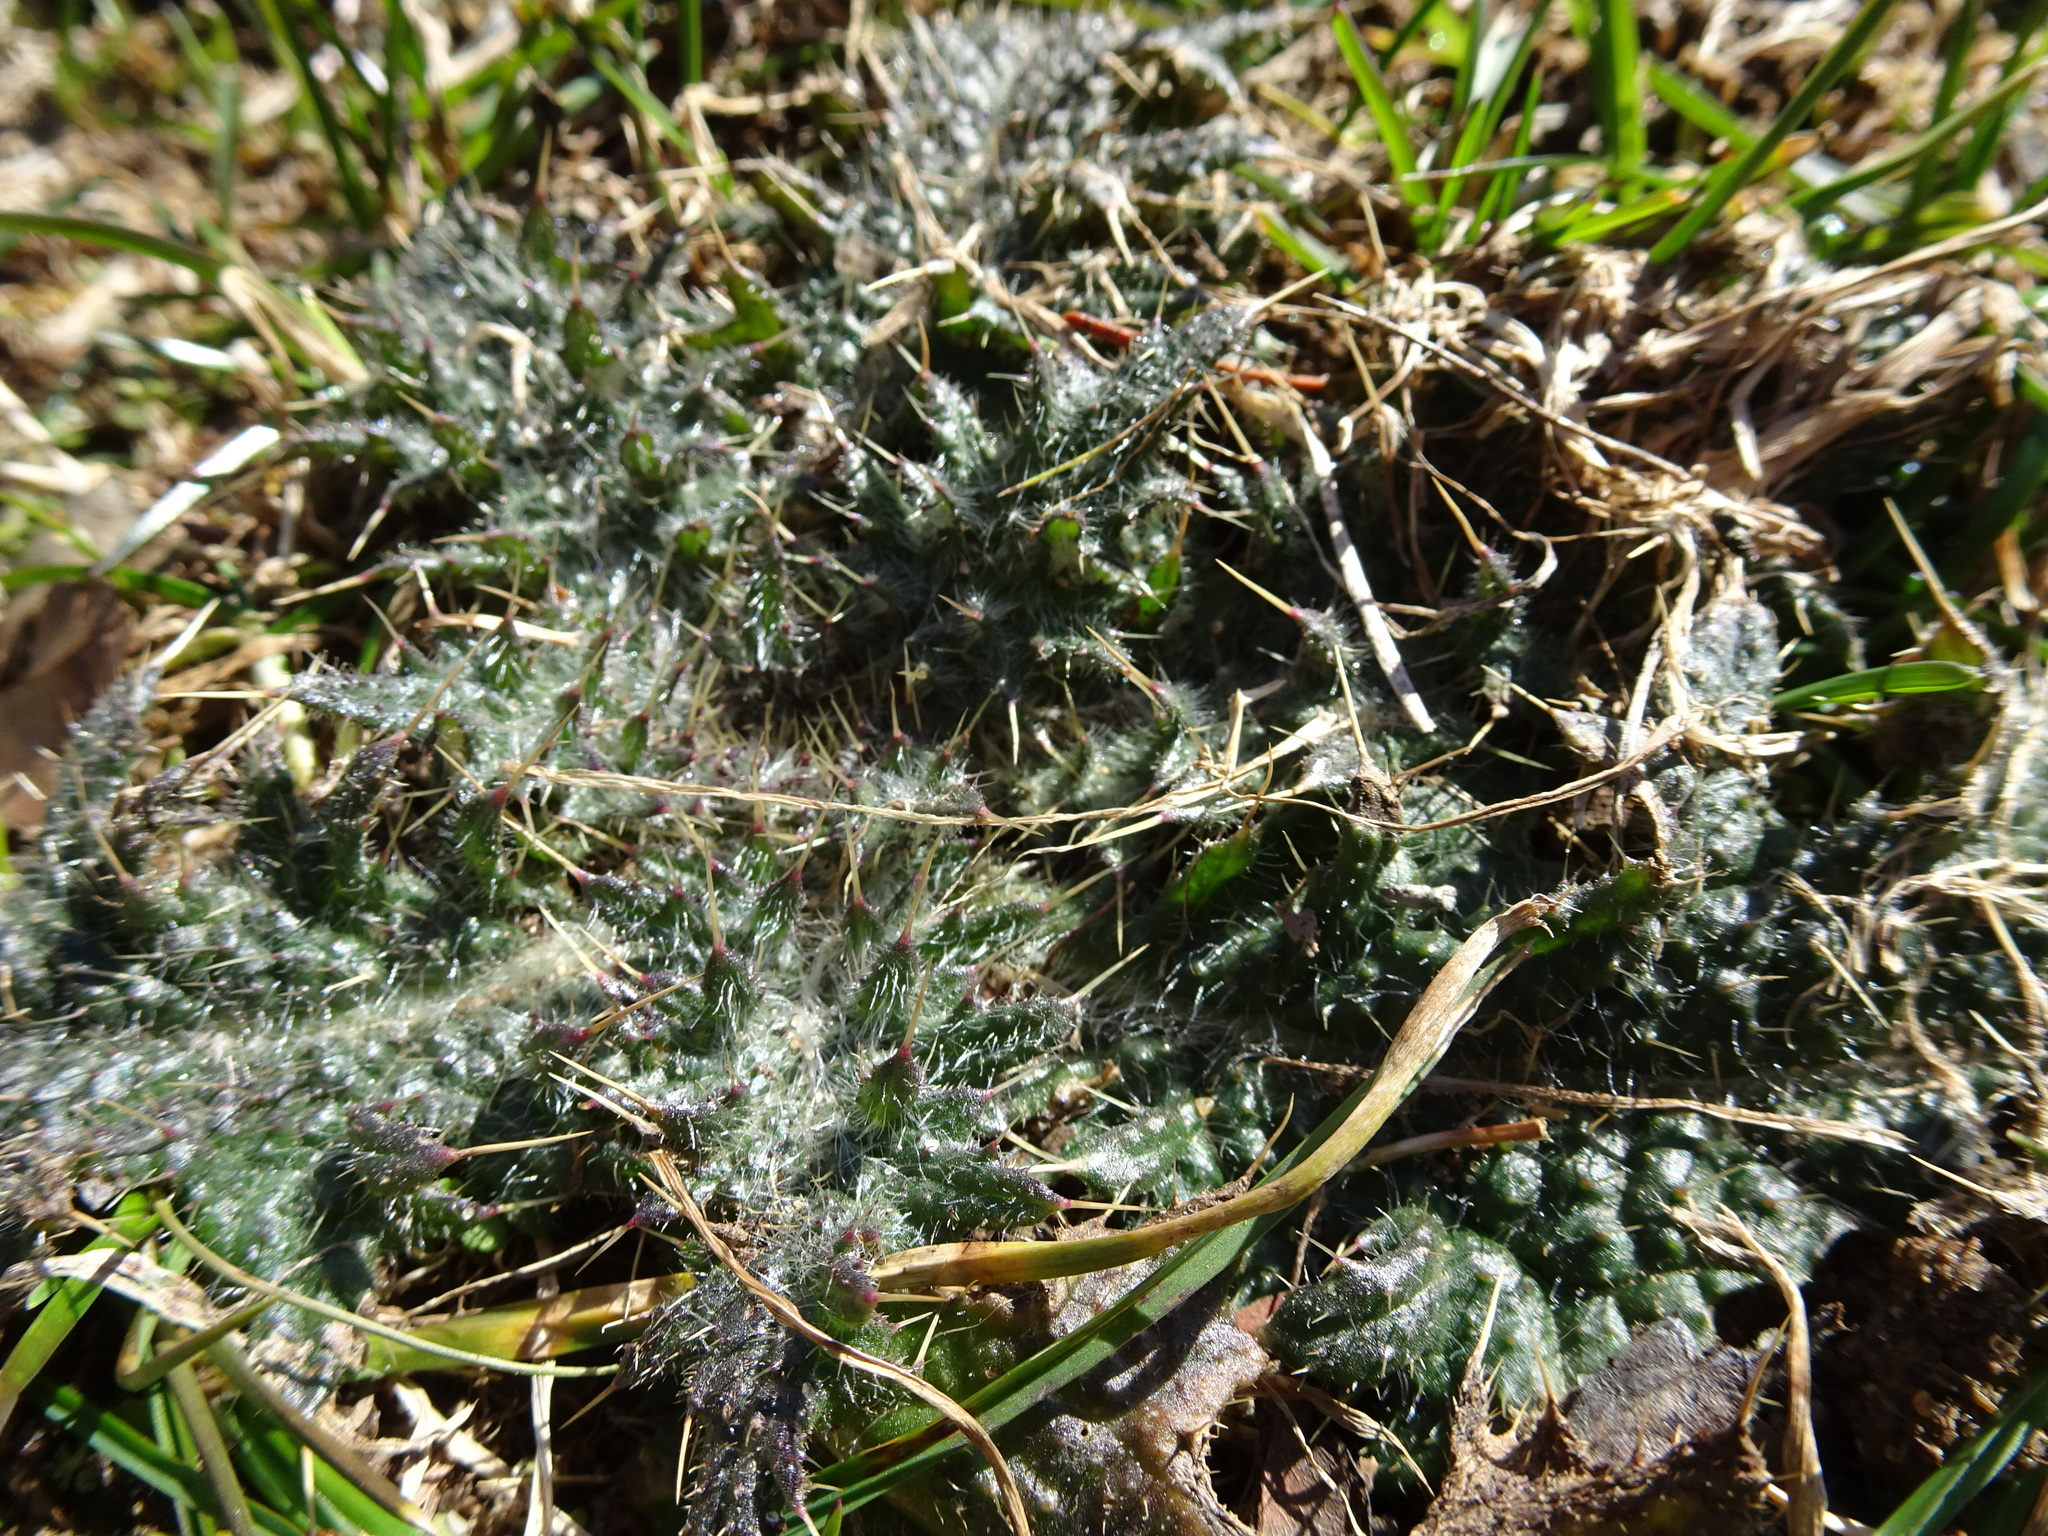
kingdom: Plantae
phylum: Tracheophyta
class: Magnoliopsida
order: Asterales
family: Asteraceae
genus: Cirsium
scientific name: Cirsium vulgare
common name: Bull thistle
